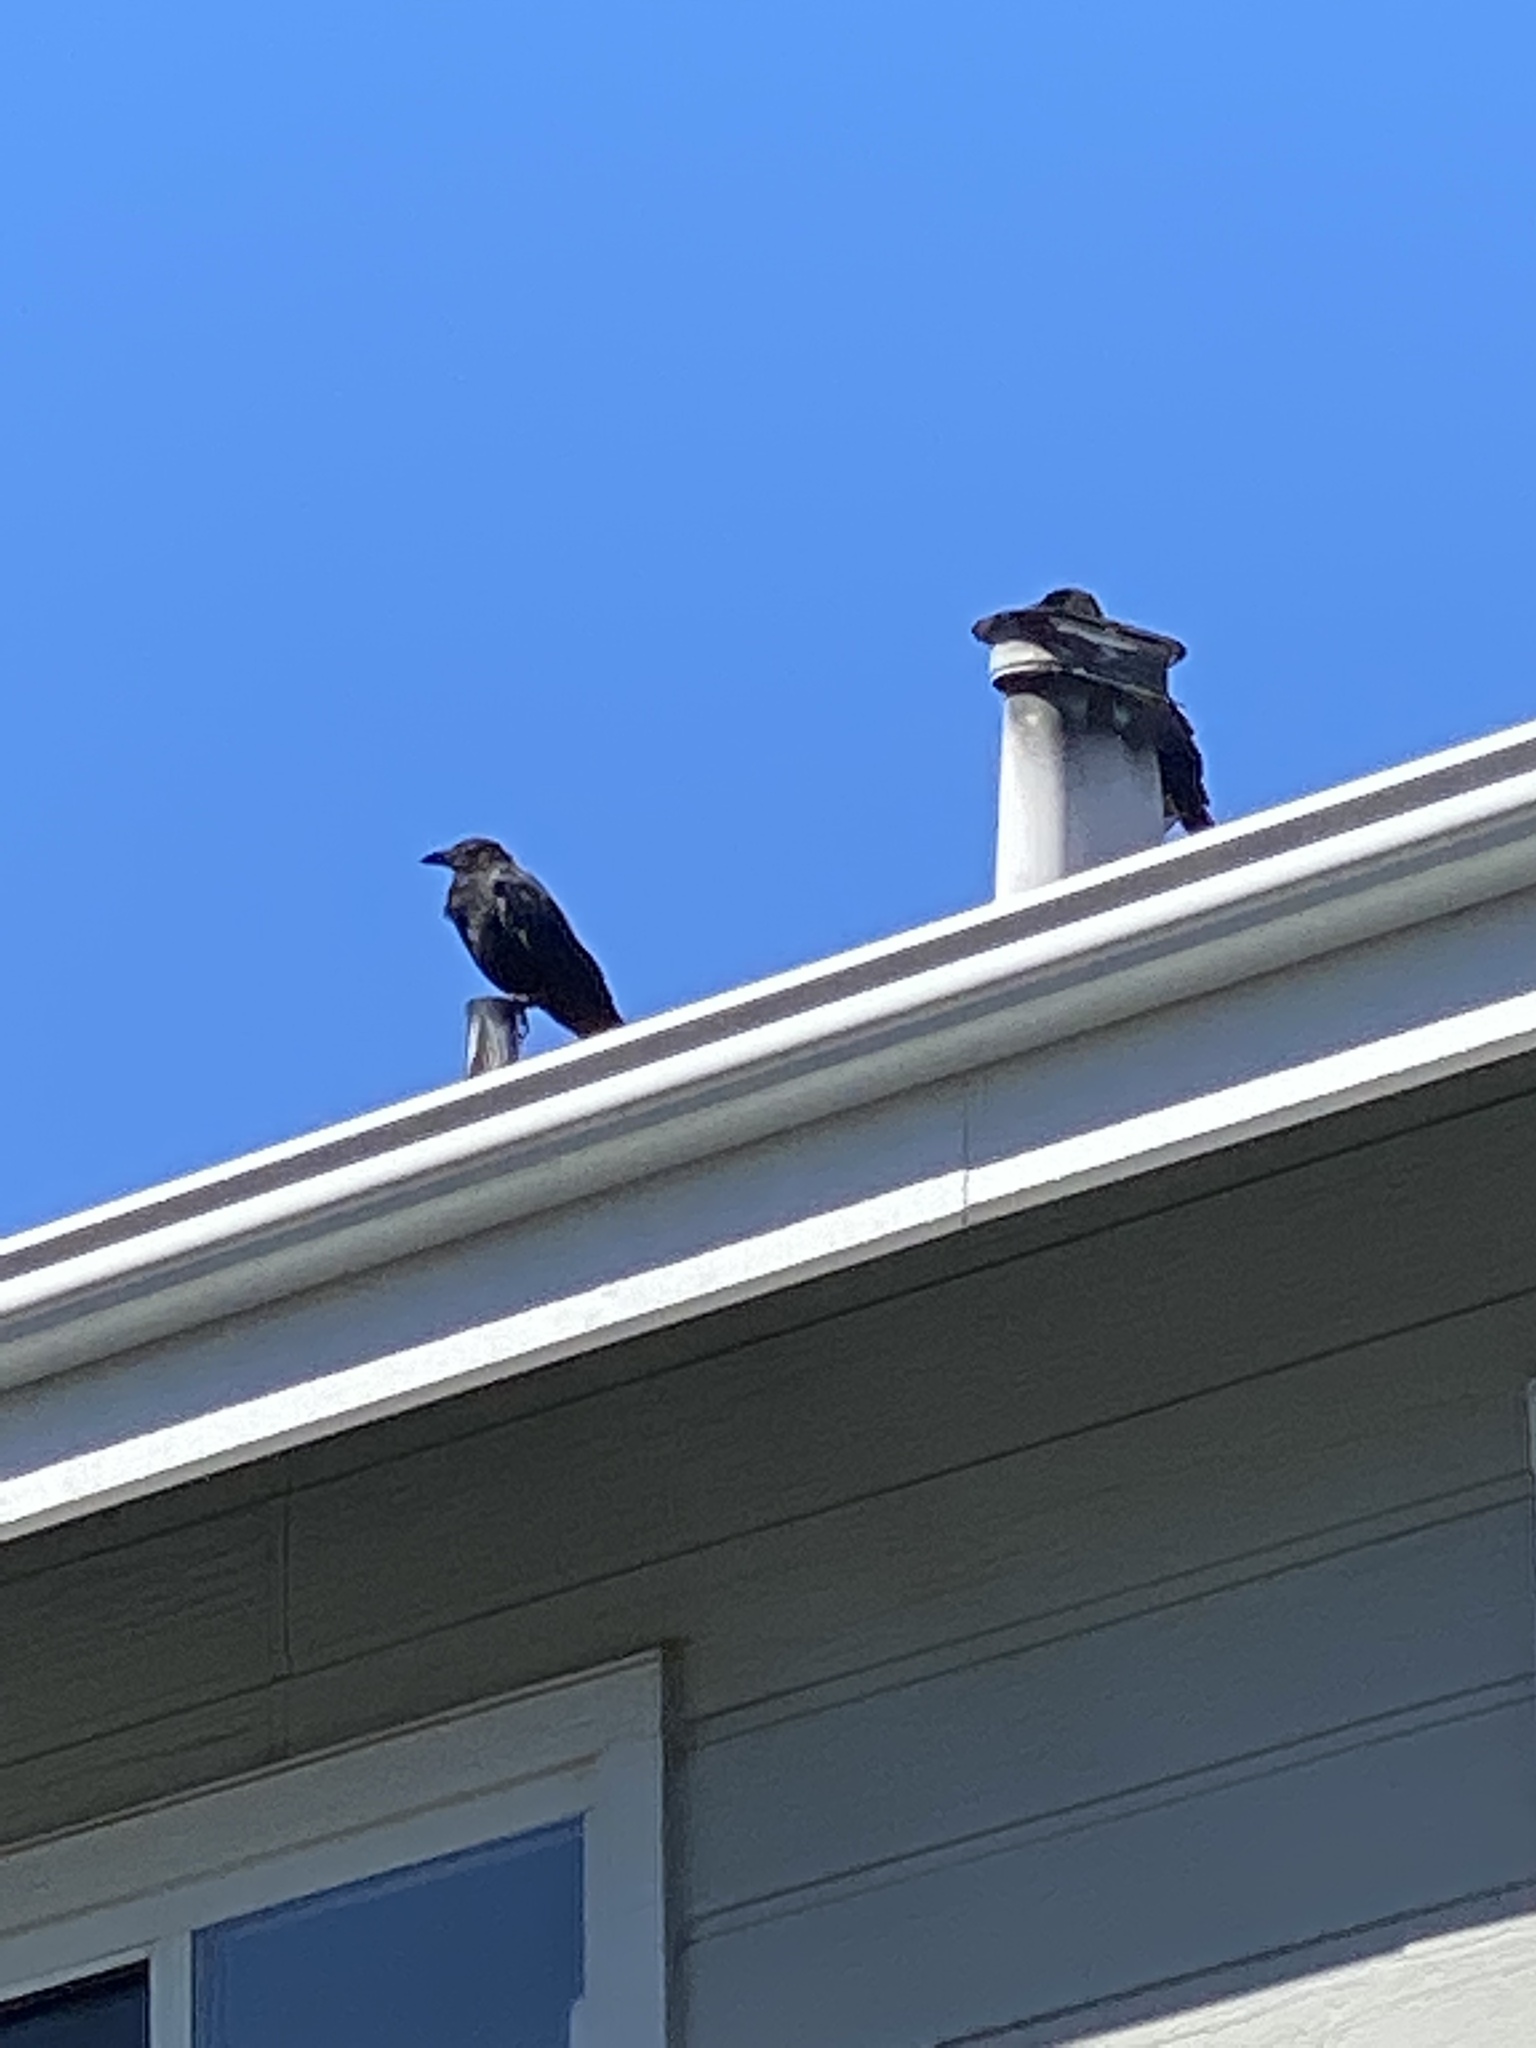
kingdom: Animalia
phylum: Chordata
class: Aves
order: Passeriformes
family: Corvidae
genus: Corvus
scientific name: Corvus brachyrhynchos
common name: American crow
